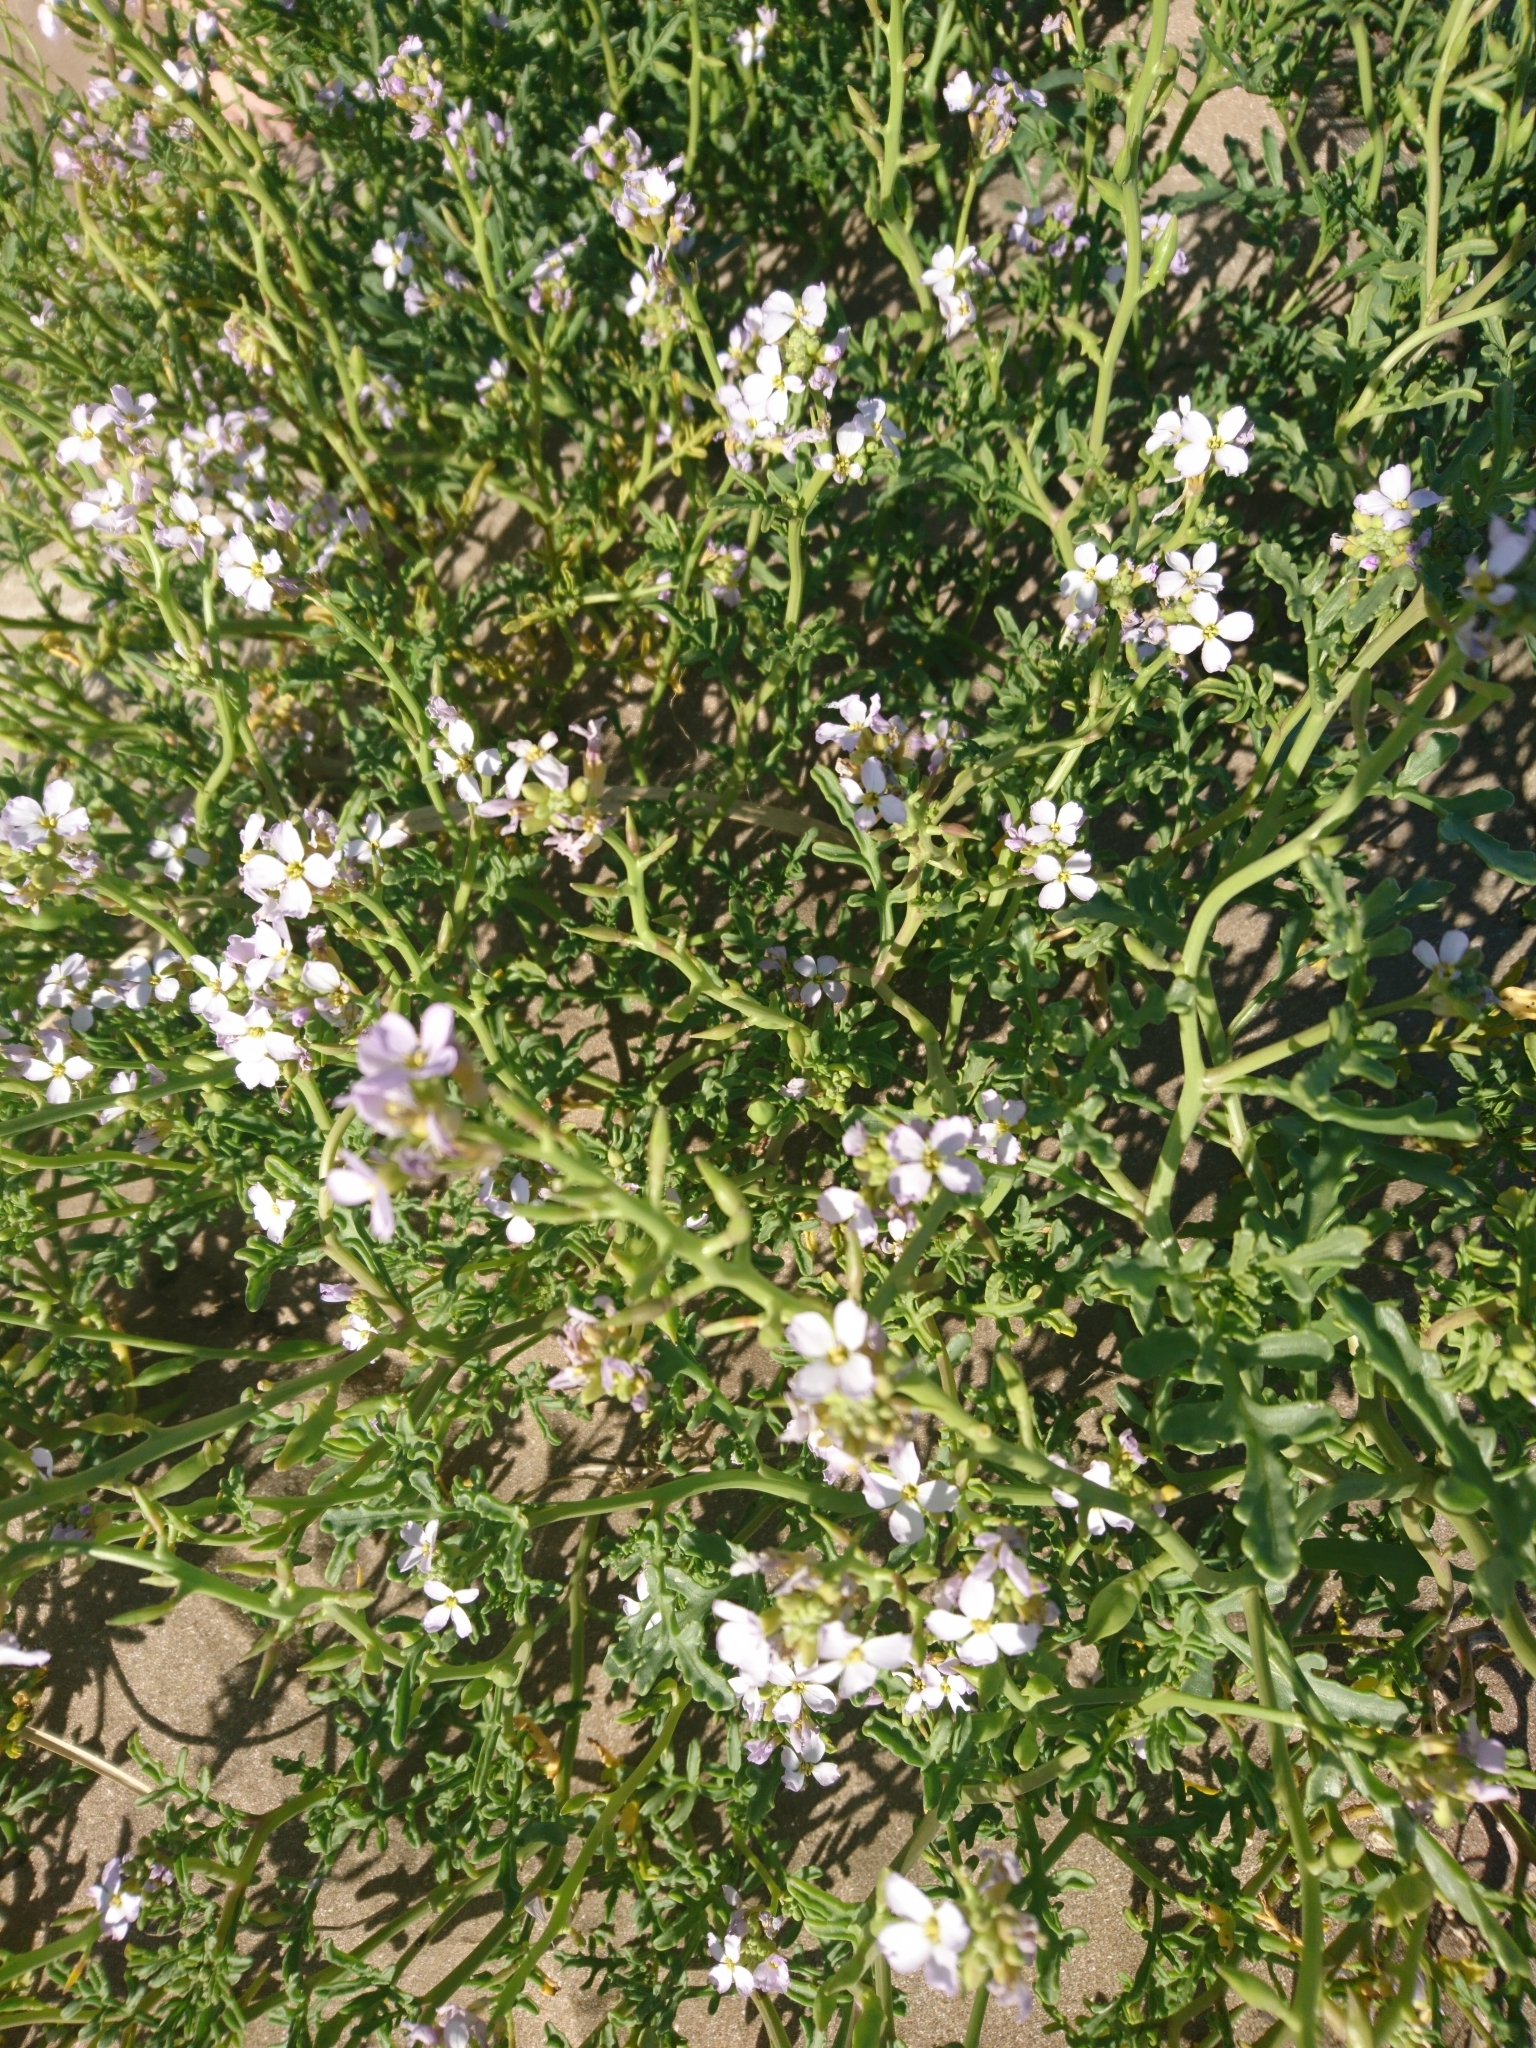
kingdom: Plantae
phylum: Tracheophyta
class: Magnoliopsida
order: Brassicales
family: Brassicaceae
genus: Cakile
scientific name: Cakile maritima
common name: Sea rocket
